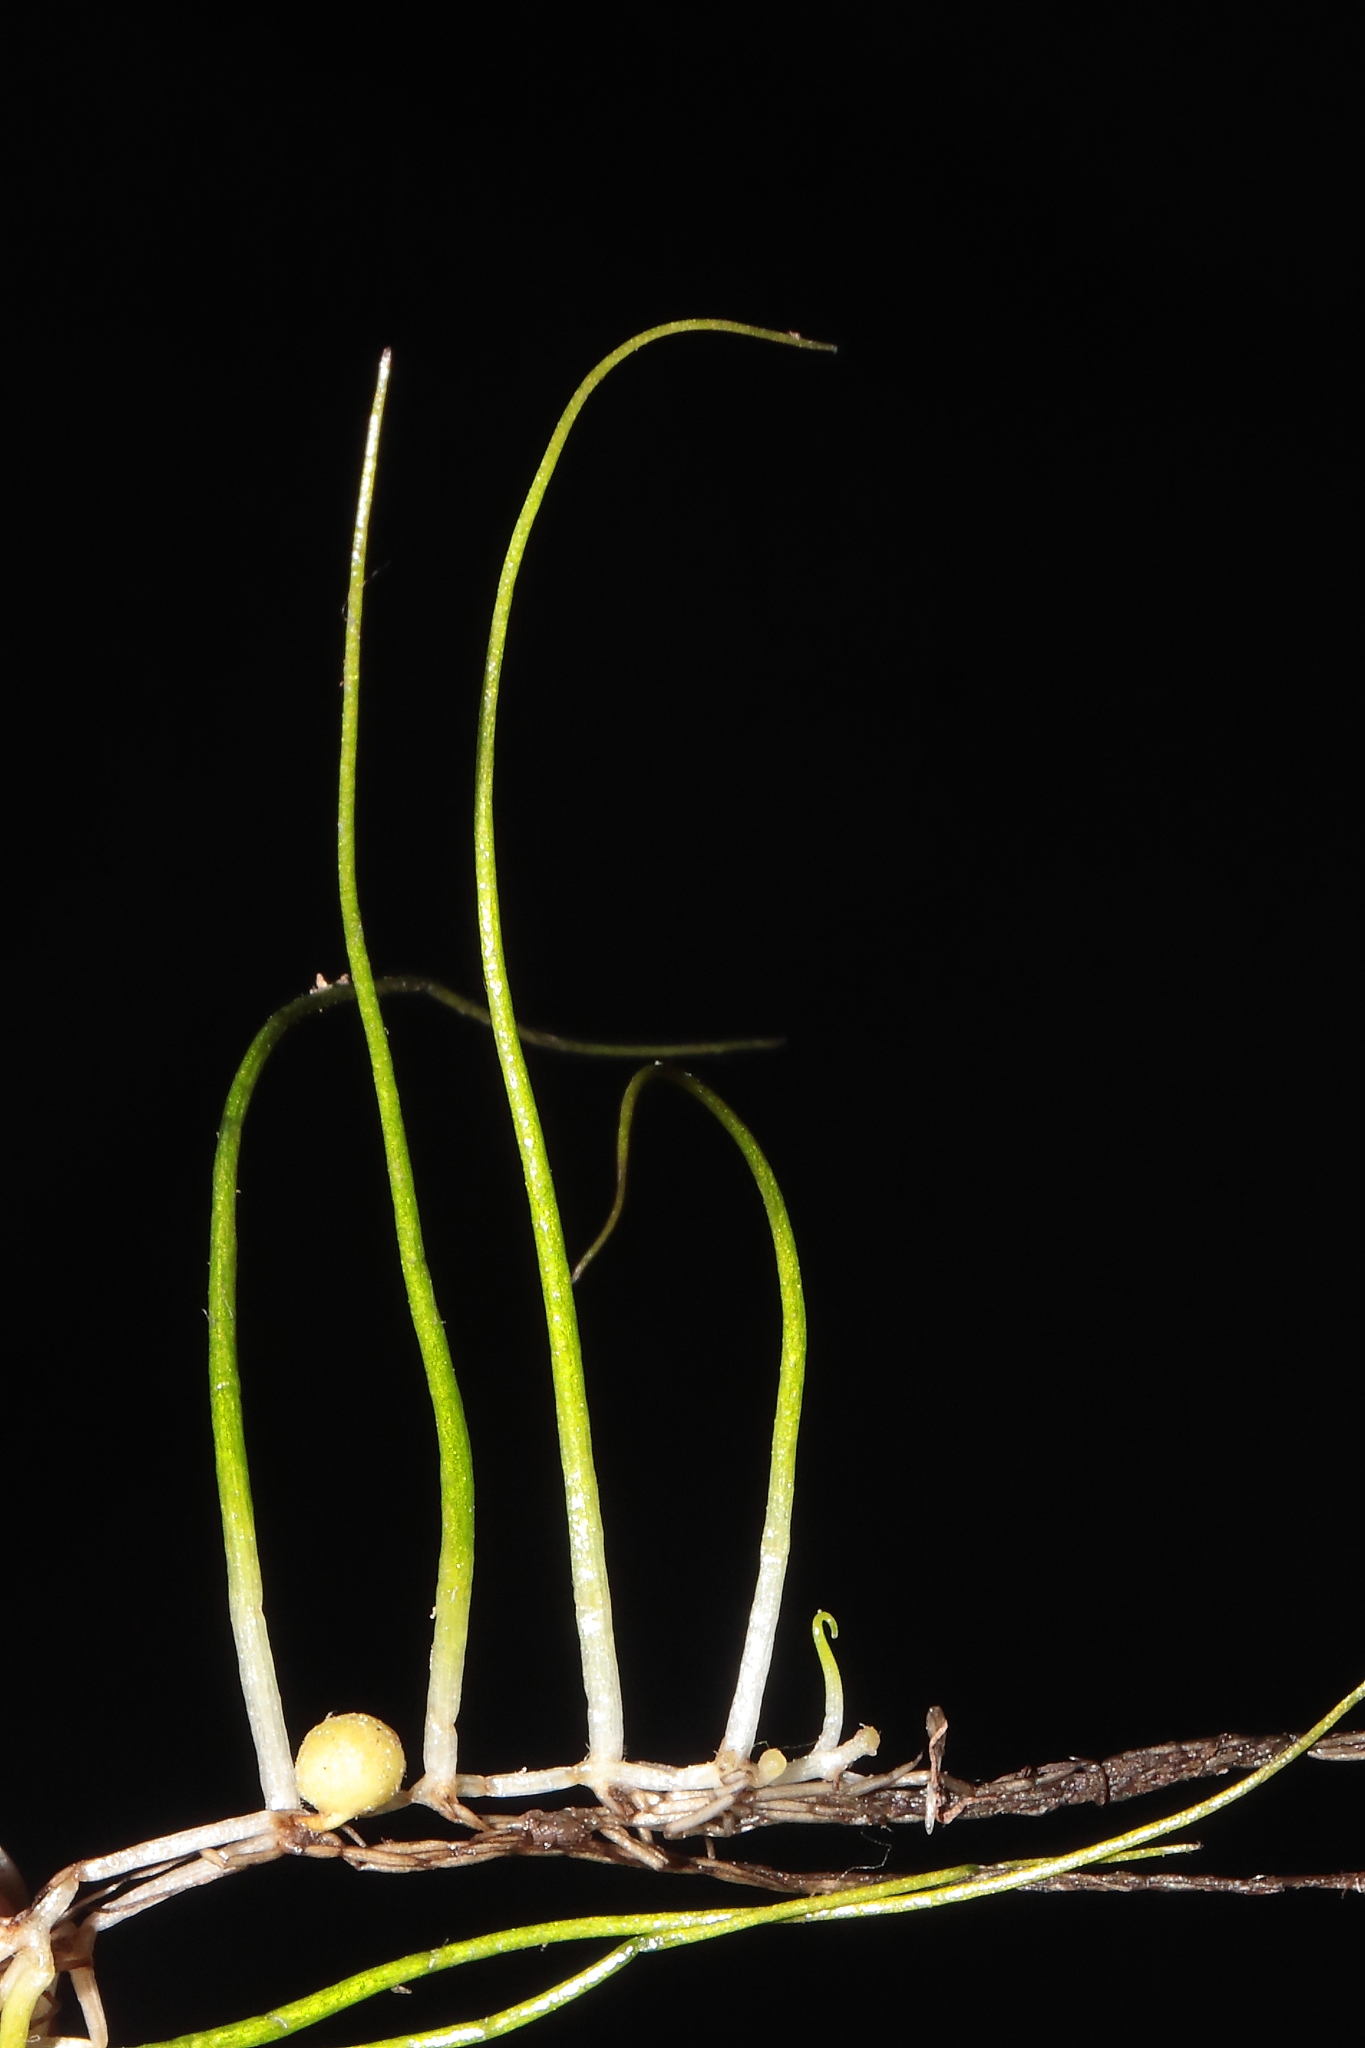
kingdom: Plantae
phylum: Tracheophyta
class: Polypodiopsida
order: Salviniales
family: Marsileaceae
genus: Pilularia
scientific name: Pilularia americana
